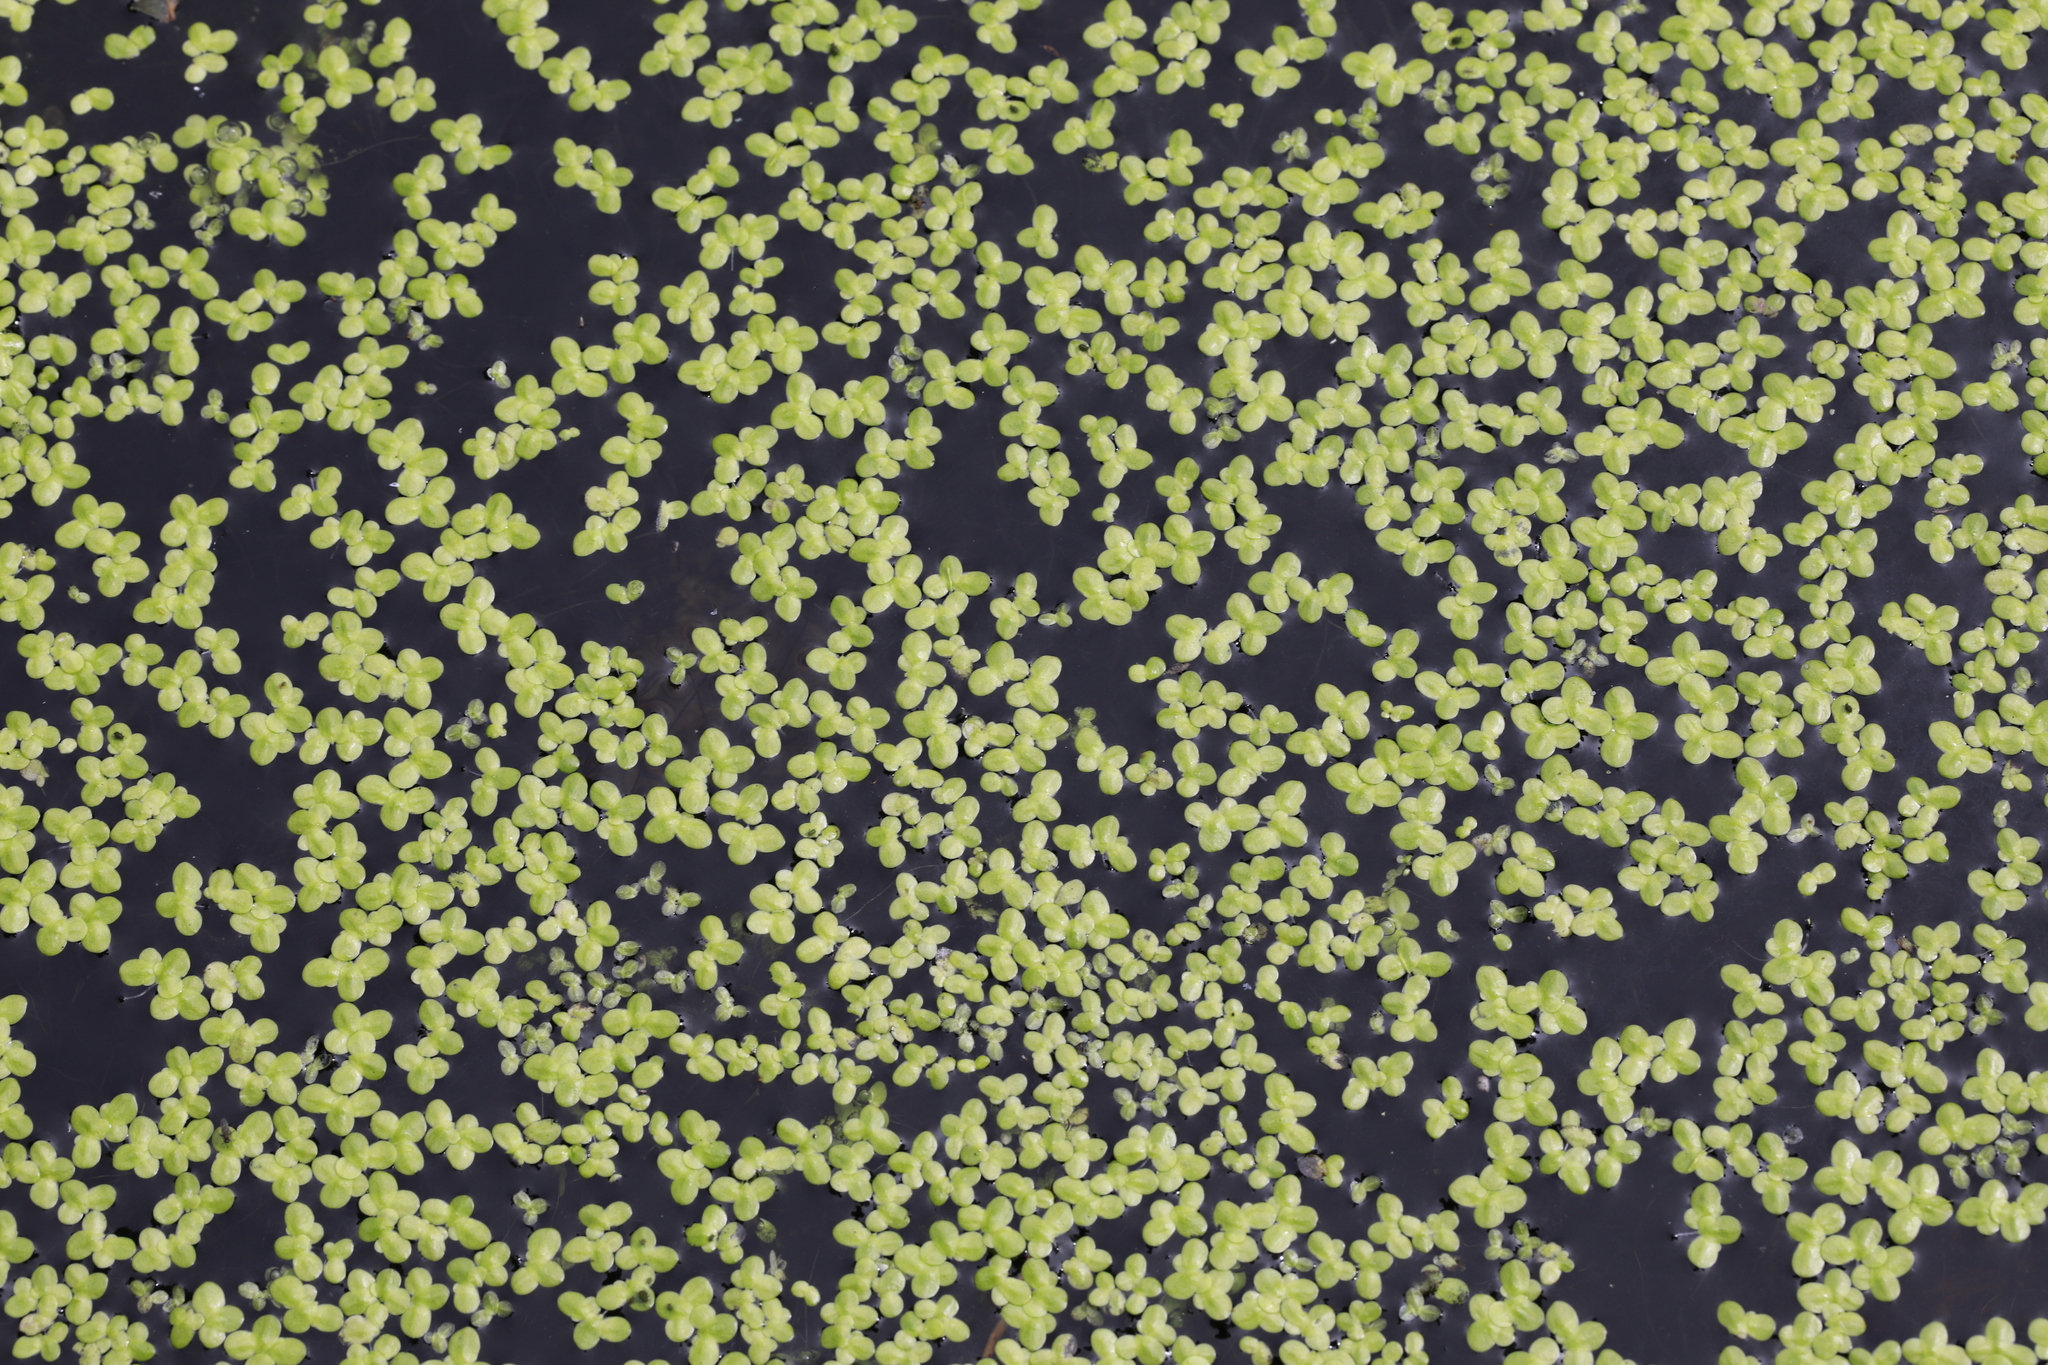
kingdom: Plantae
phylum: Tracheophyta
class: Liliopsida
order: Alismatales
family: Araceae
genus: Lemna
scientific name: Lemna minor
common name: Common duckweed
